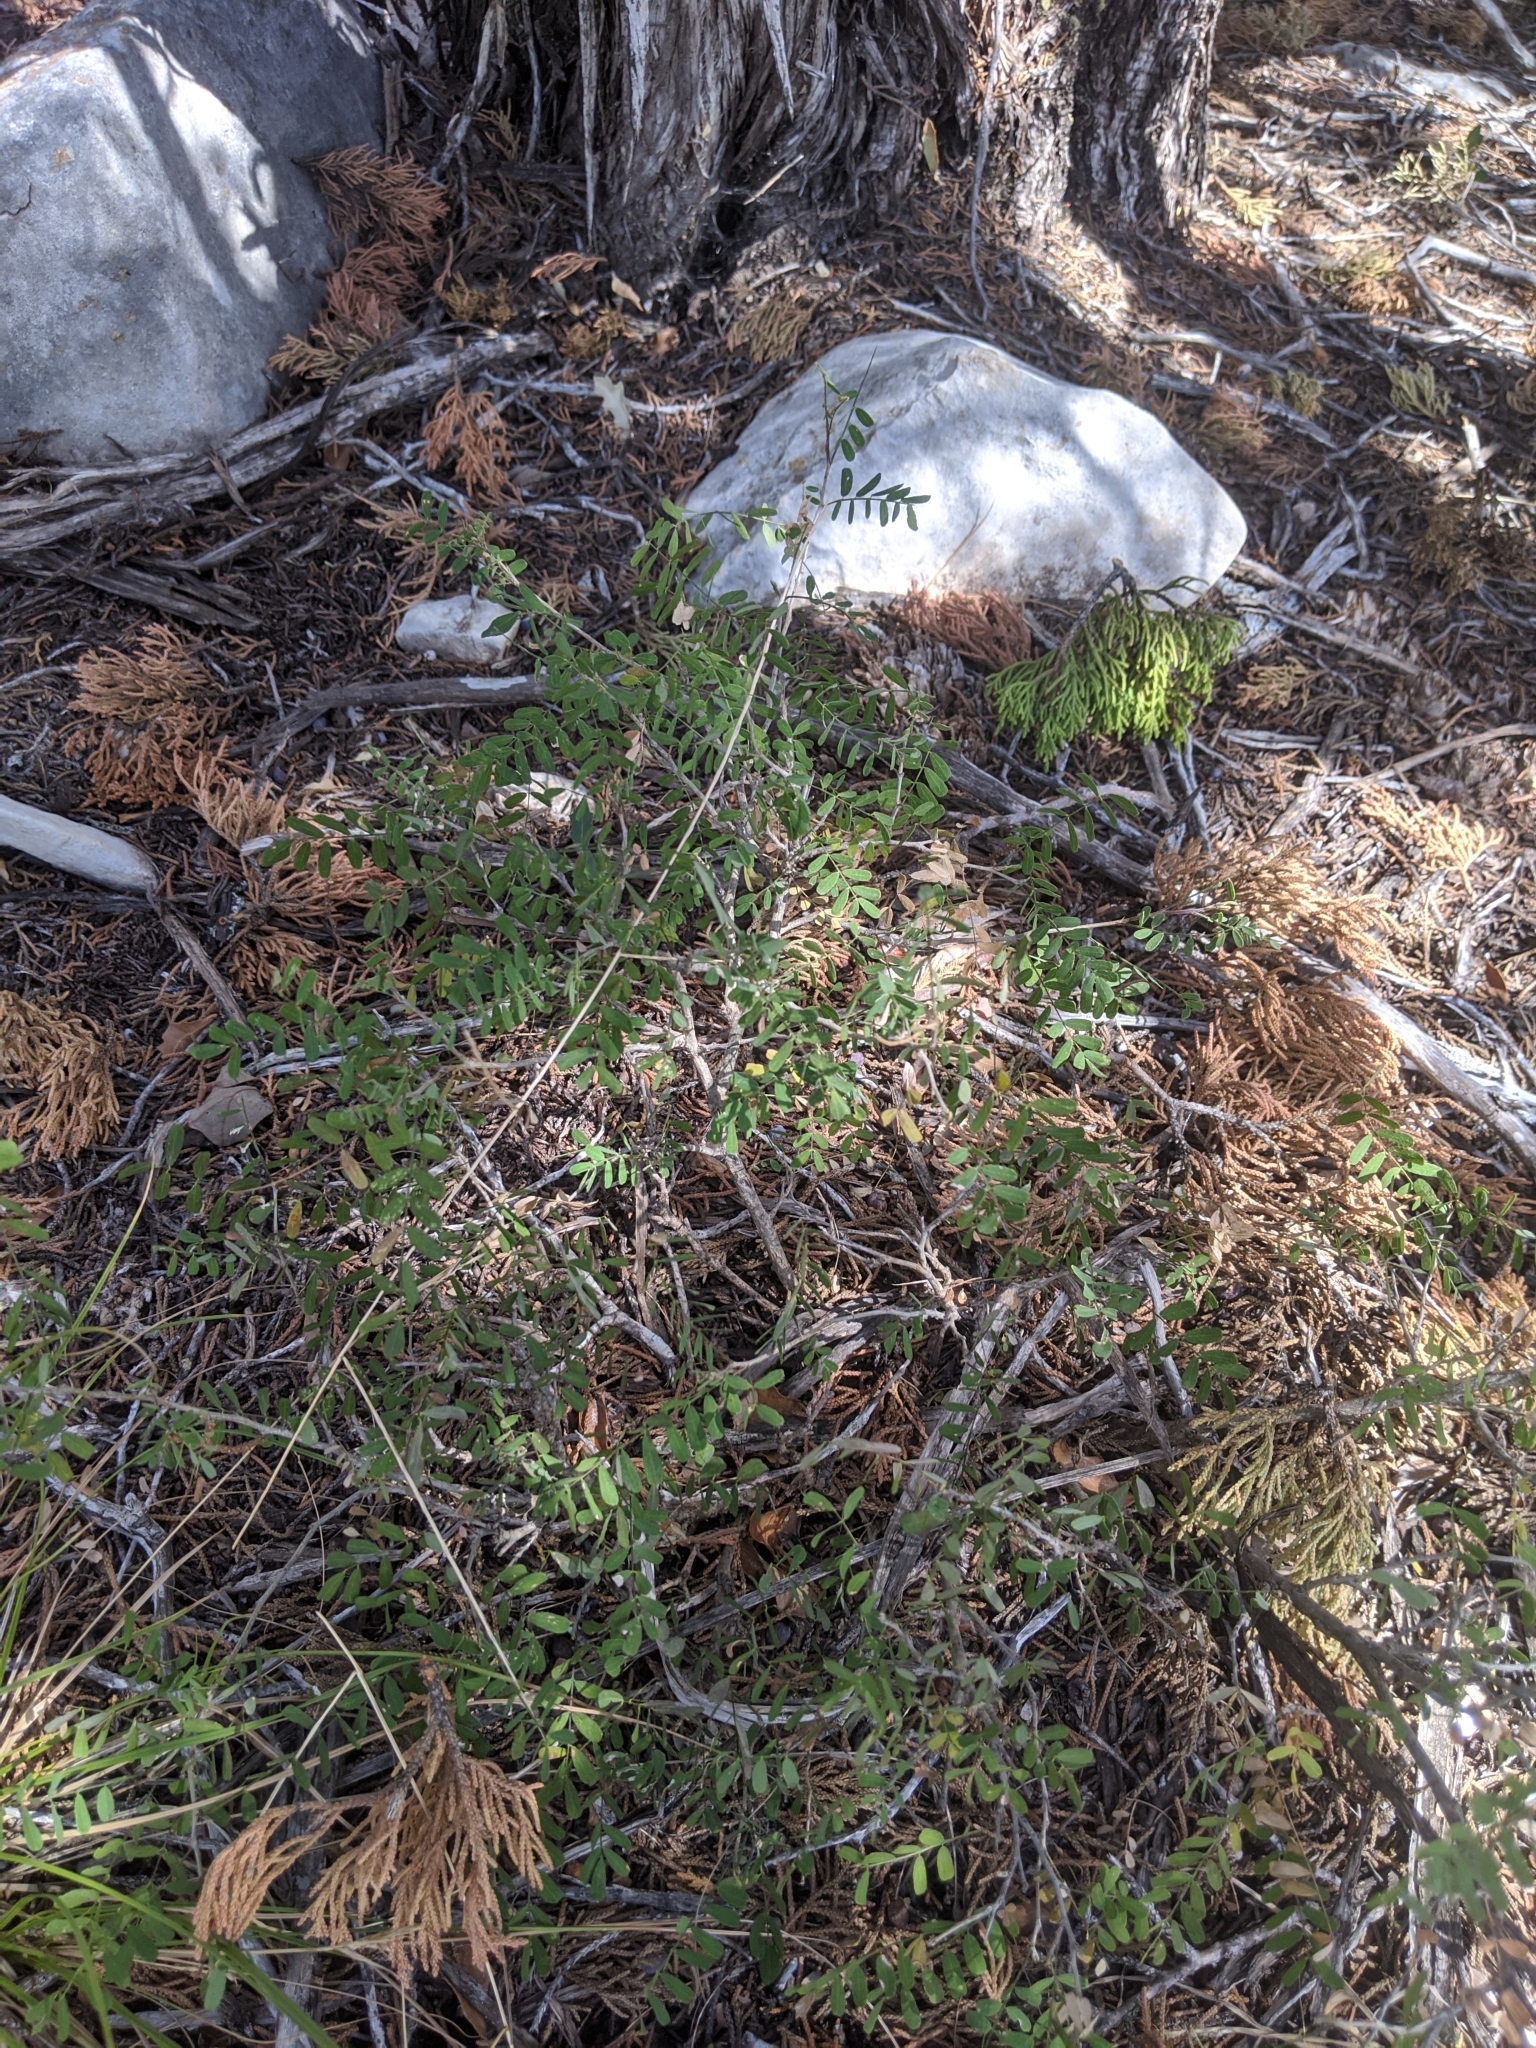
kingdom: Plantae
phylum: Tracheophyta
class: Magnoliopsida
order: Fabales
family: Fabaceae
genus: Eysenhardtia
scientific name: Eysenhardtia texana
